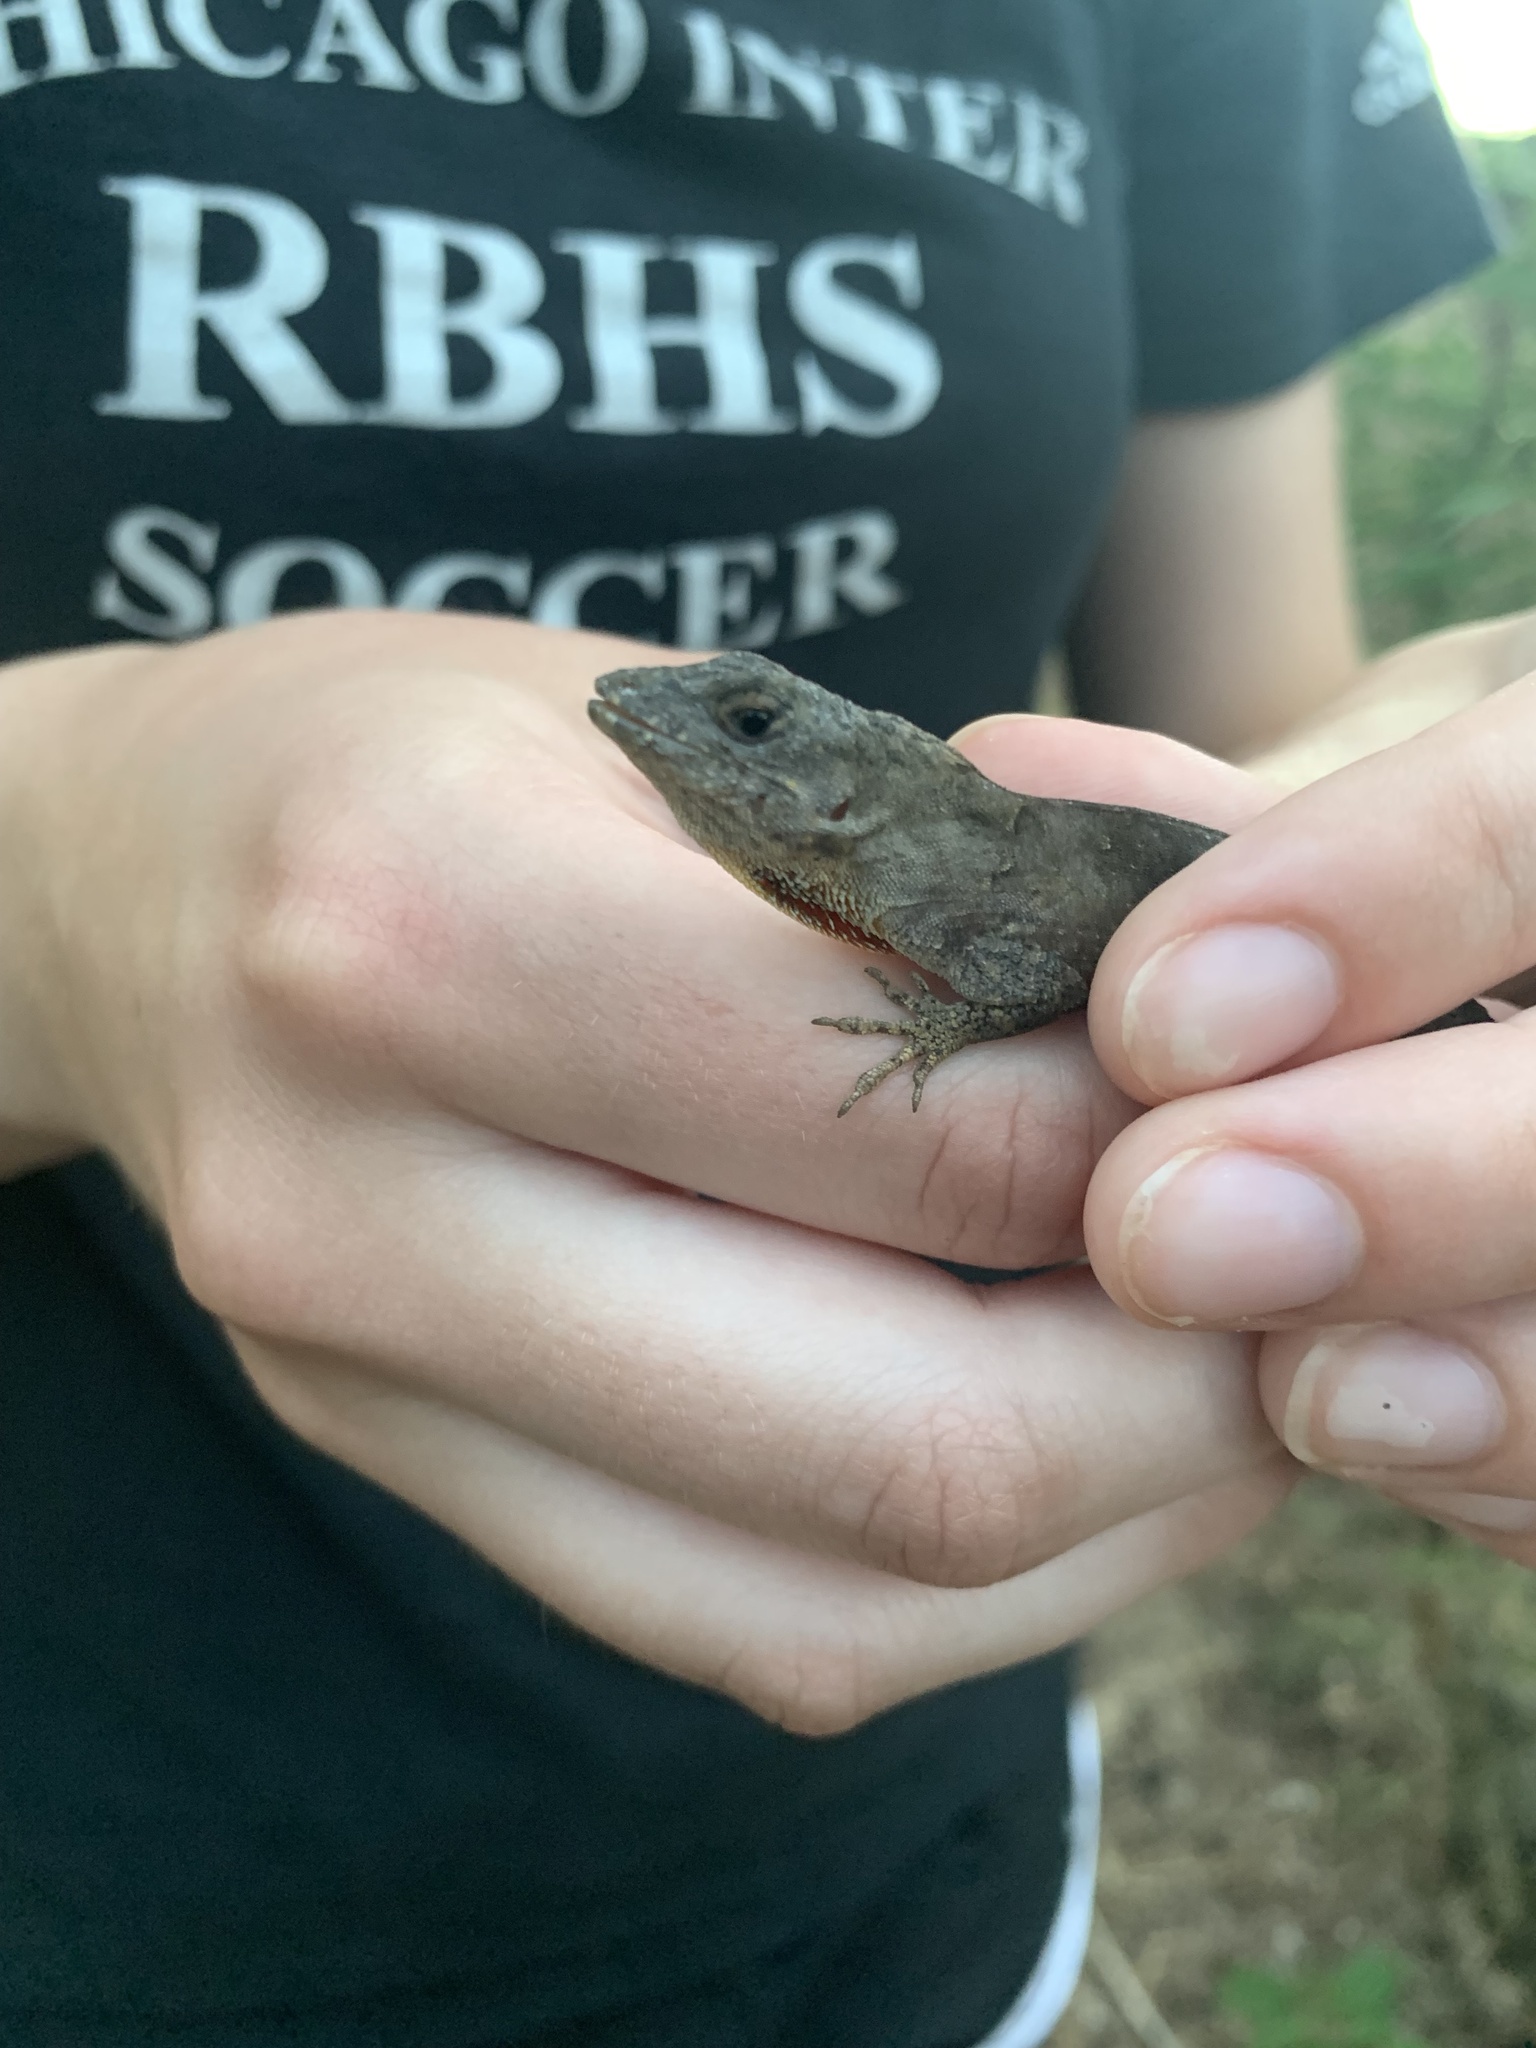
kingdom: Animalia
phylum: Chordata
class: Squamata
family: Dactyloidae
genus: Anolis
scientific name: Anolis sagrei
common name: Brown anole
